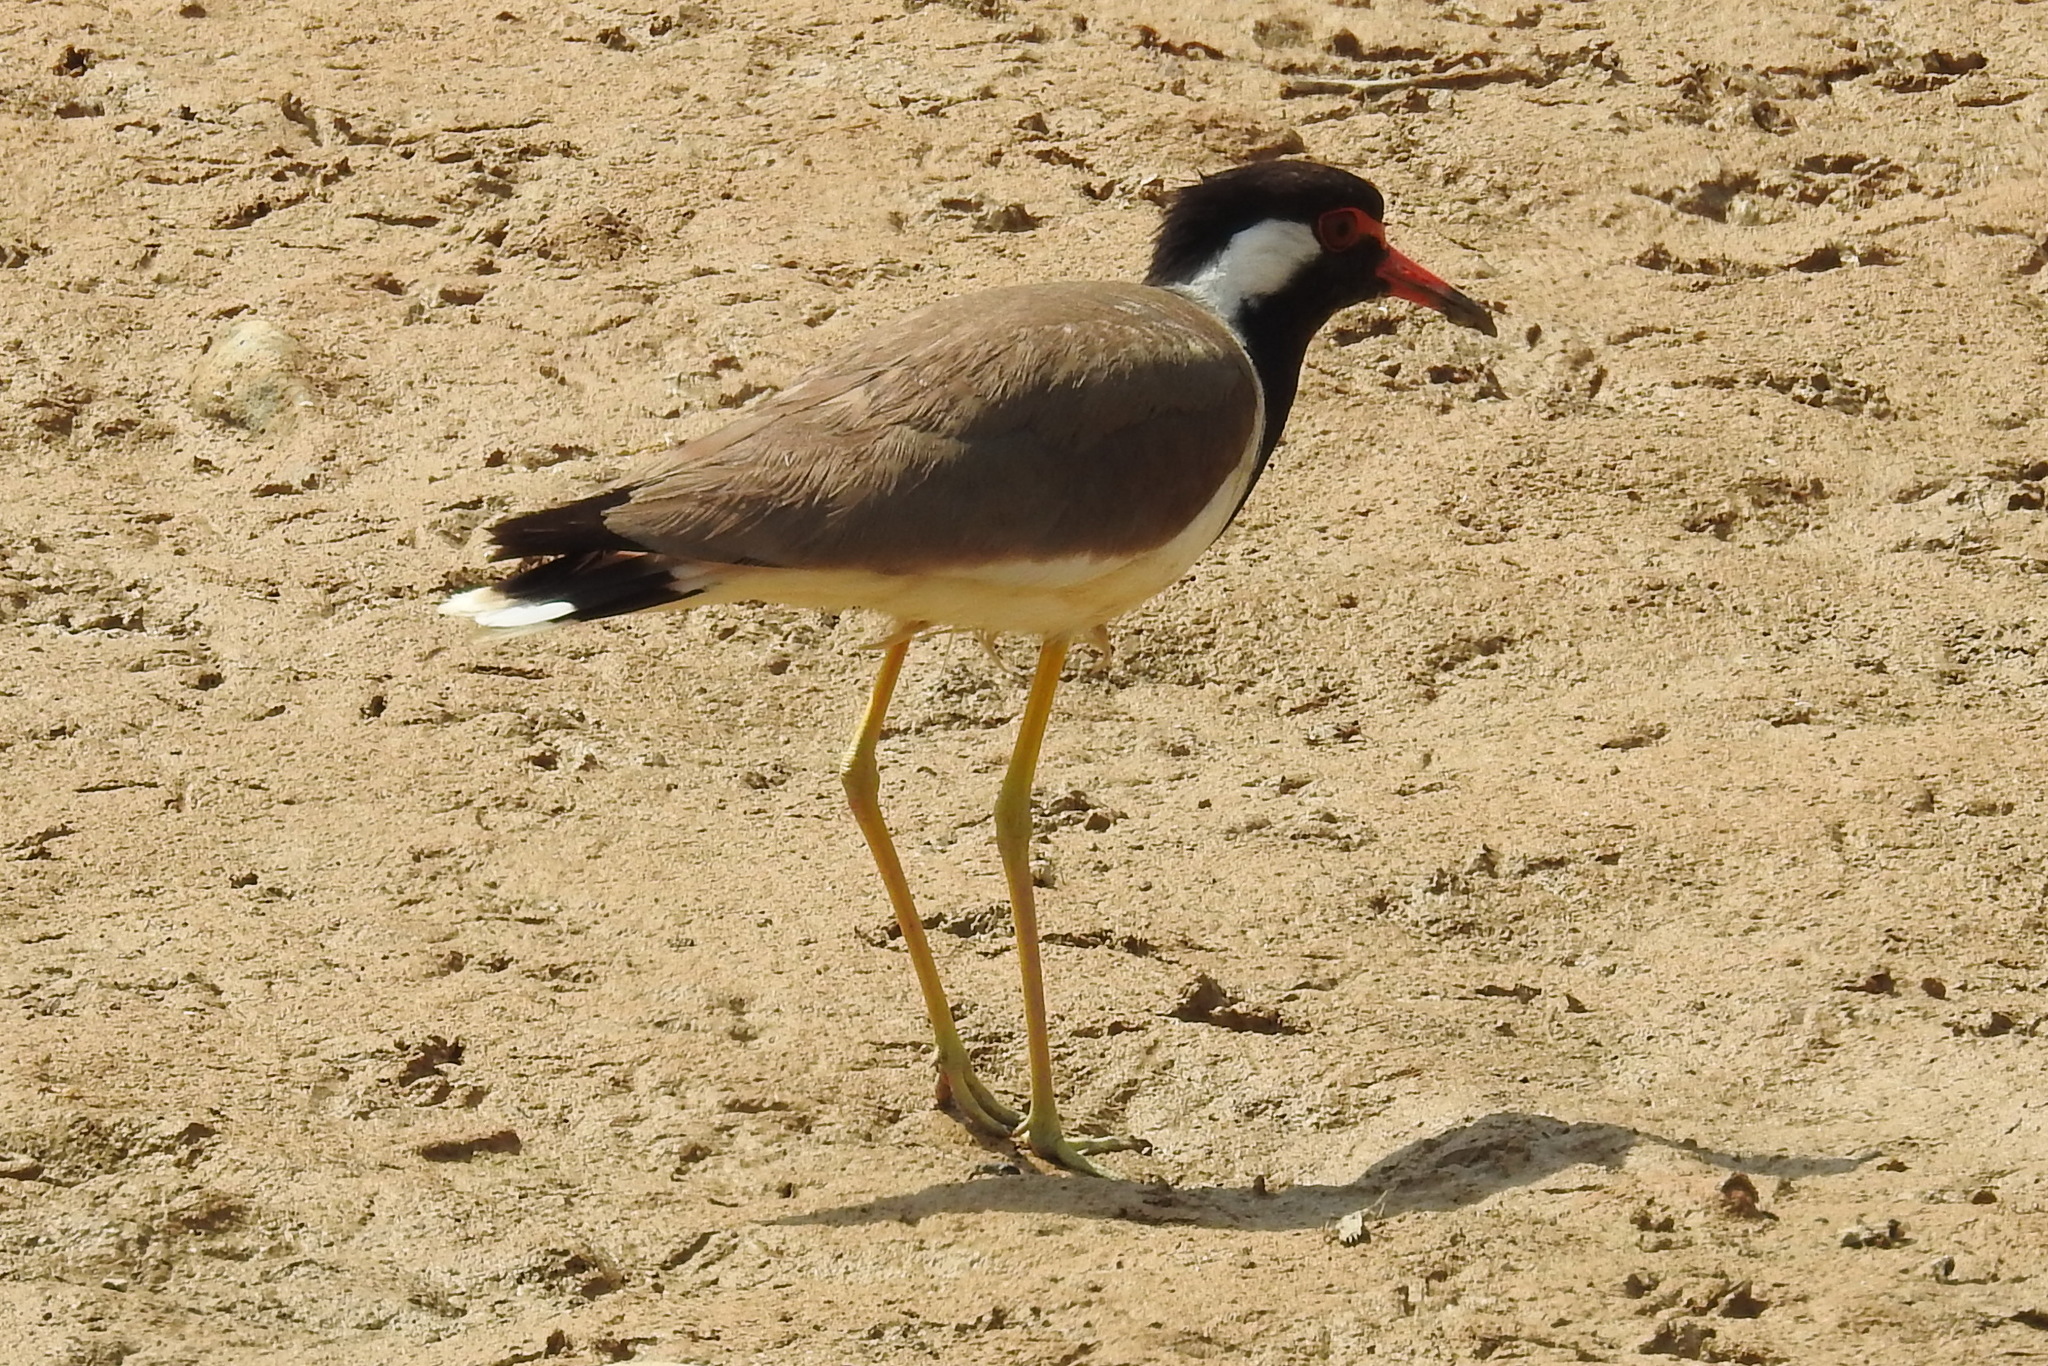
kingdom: Animalia
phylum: Chordata
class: Aves
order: Charadriiformes
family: Charadriidae
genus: Vanellus
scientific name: Vanellus indicus
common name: Red-wattled lapwing
